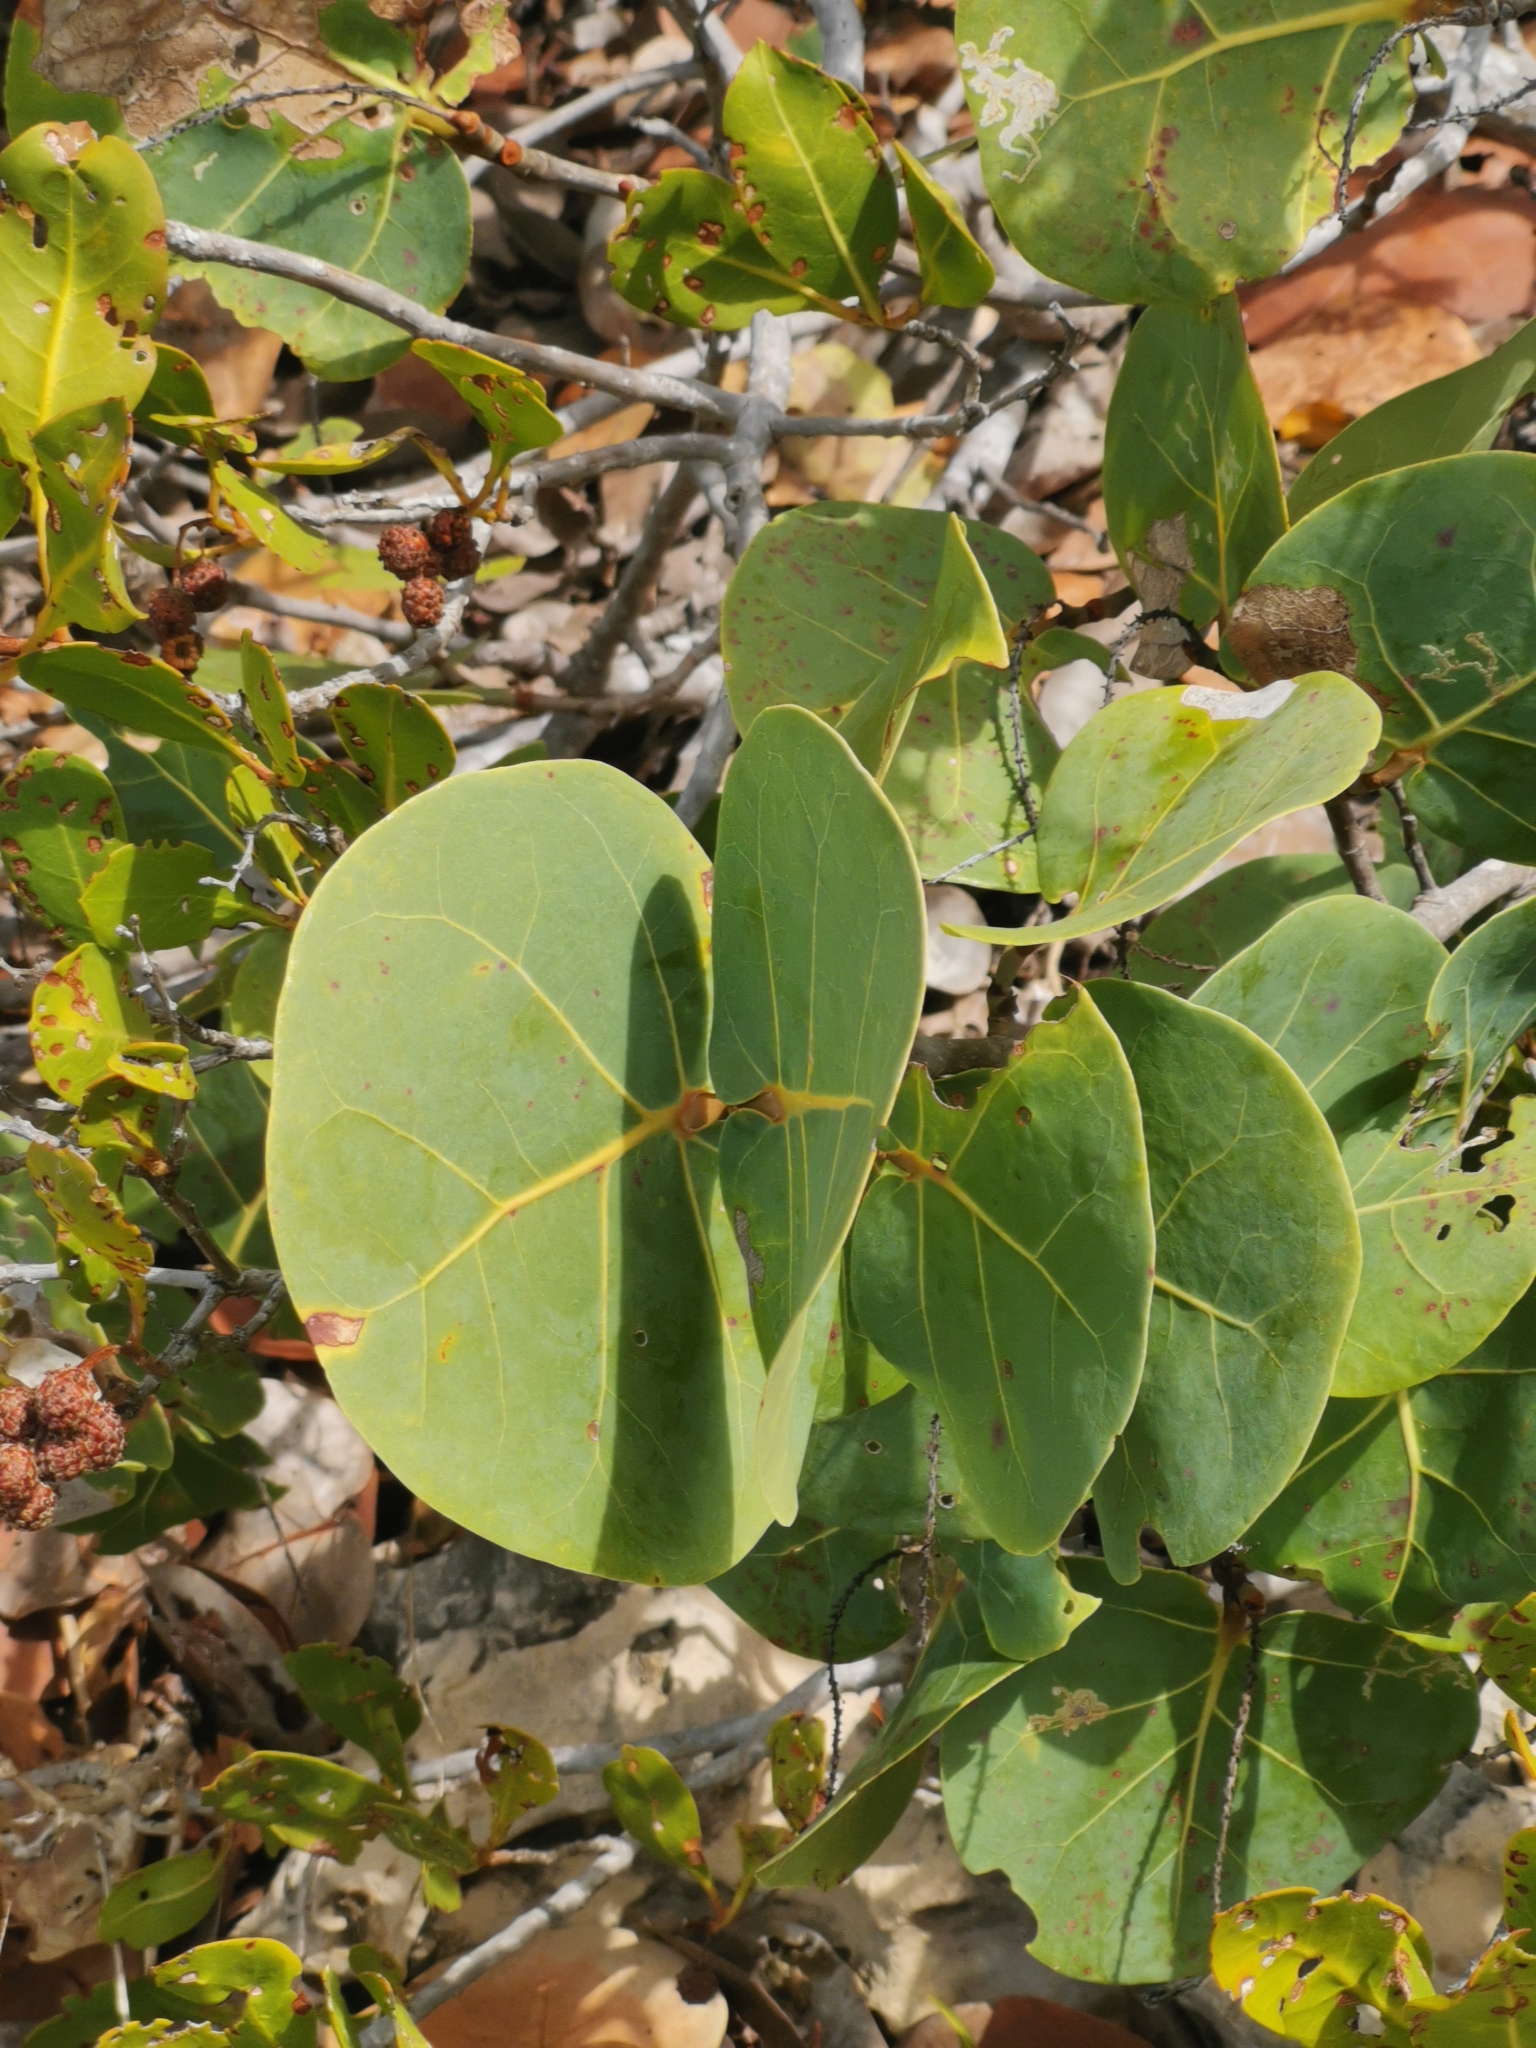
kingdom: Plantae
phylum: Tracheophyta
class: Magnoliopsida
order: Caryophyllales
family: Polygonaceae
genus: Coccoloba
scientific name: Coccoloba uvifera
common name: Seagrape
